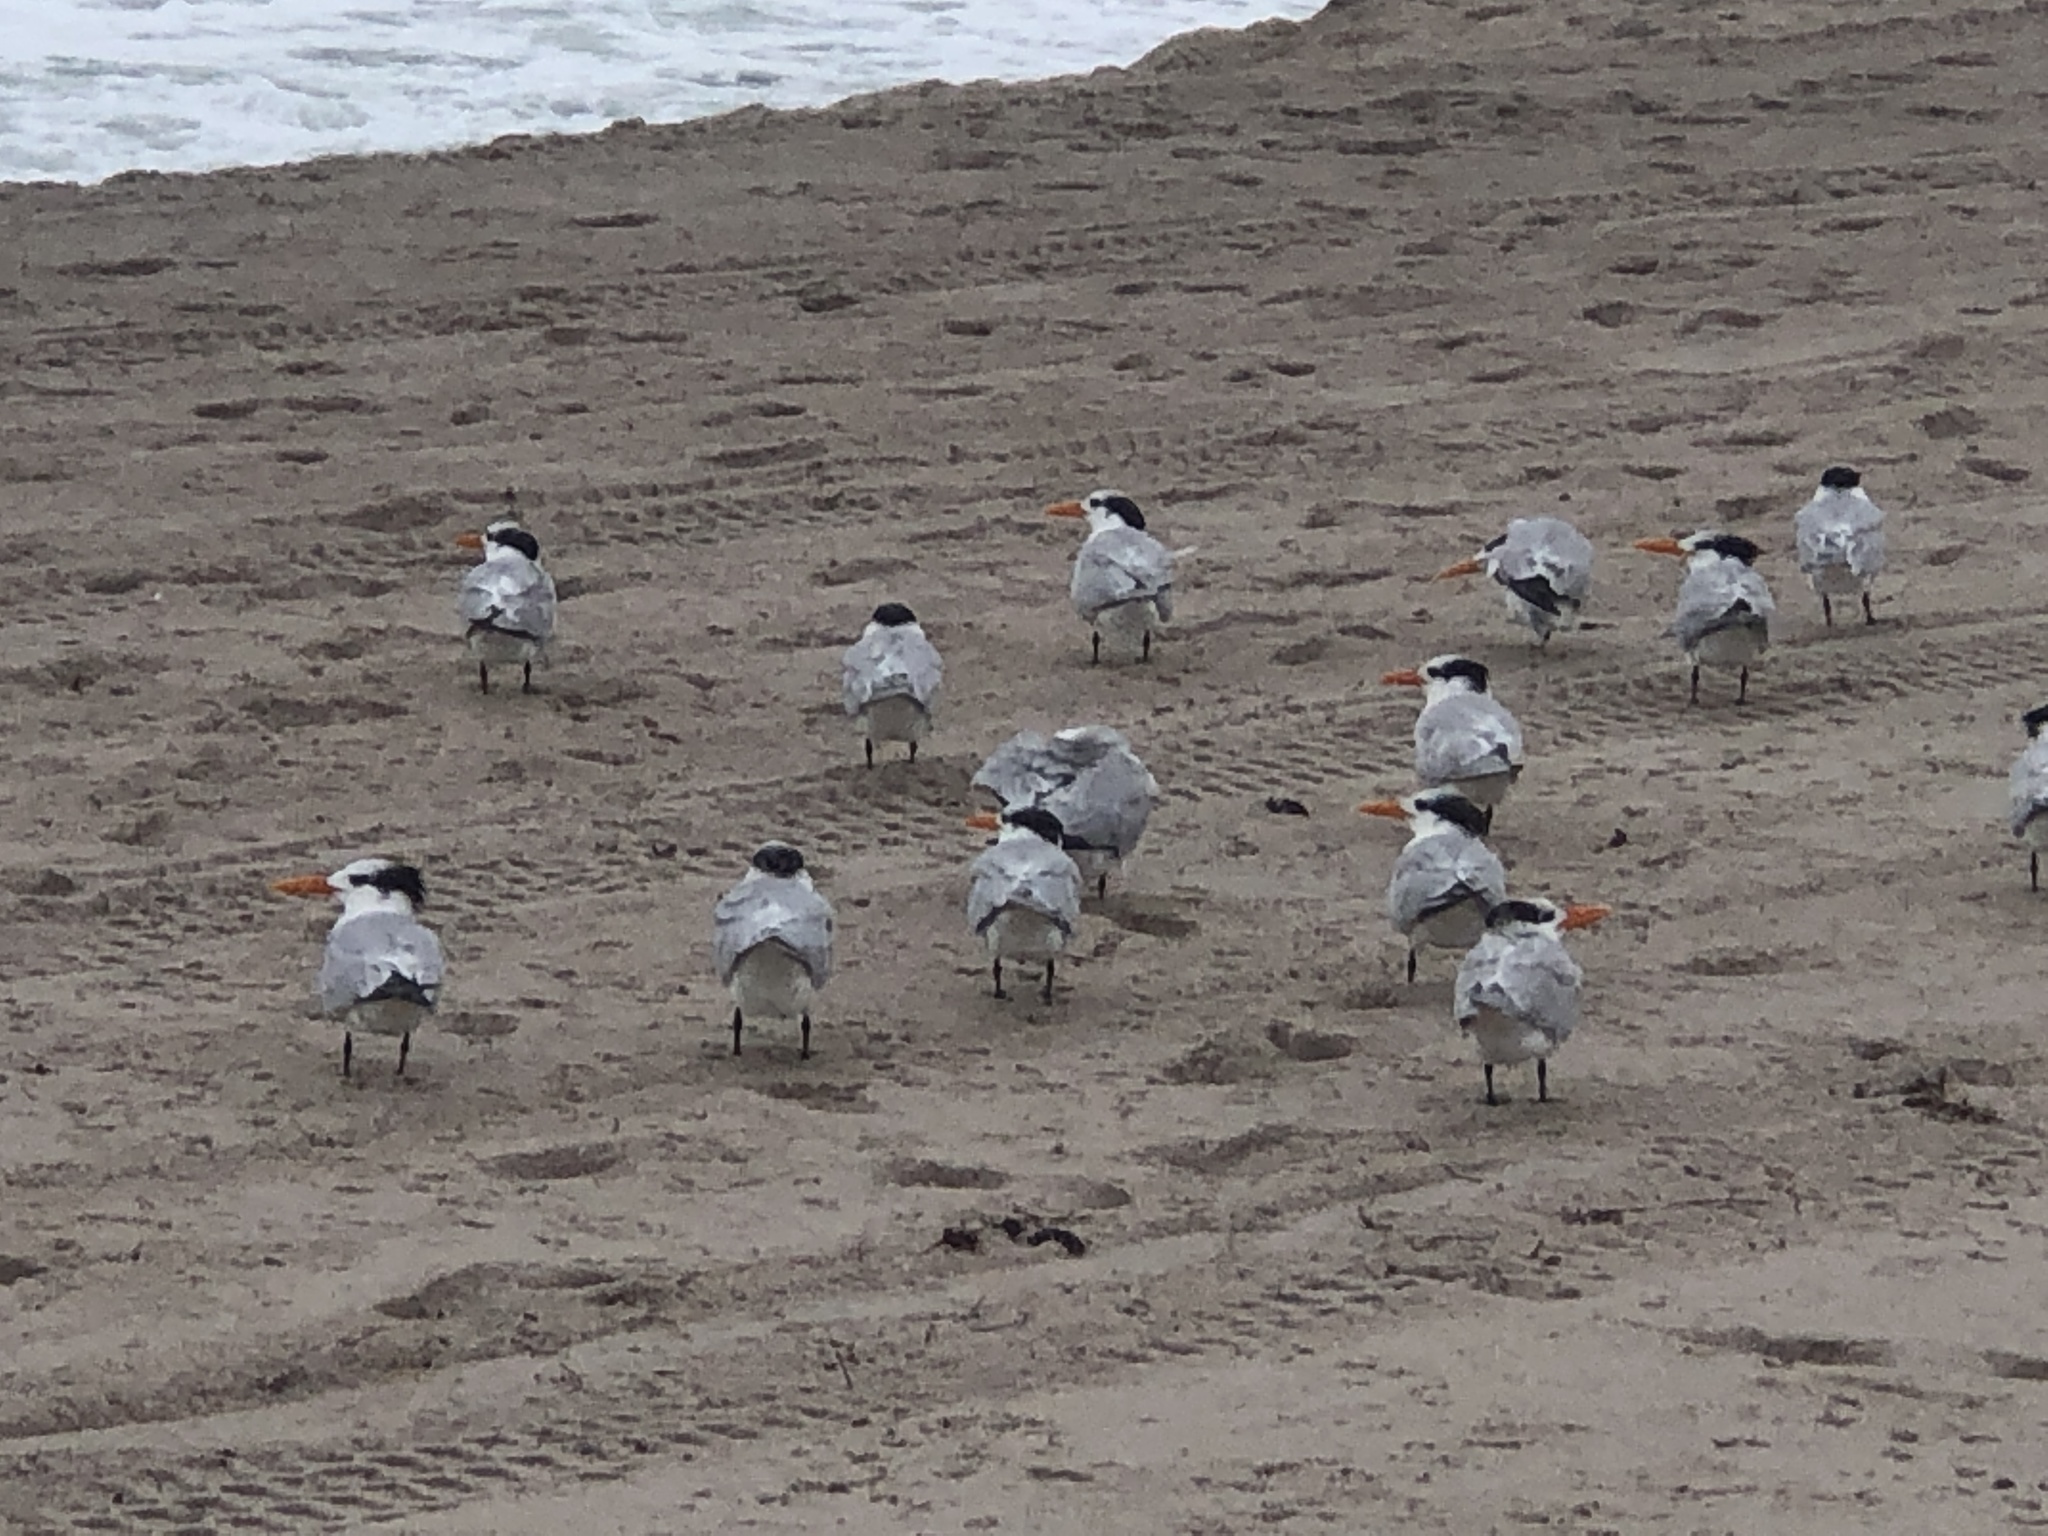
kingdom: Animalia
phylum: Chordata
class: Aves
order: Charadriiformes
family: Laridae
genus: Thalasseus
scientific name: Thalasseus maximus
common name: Royal tern
